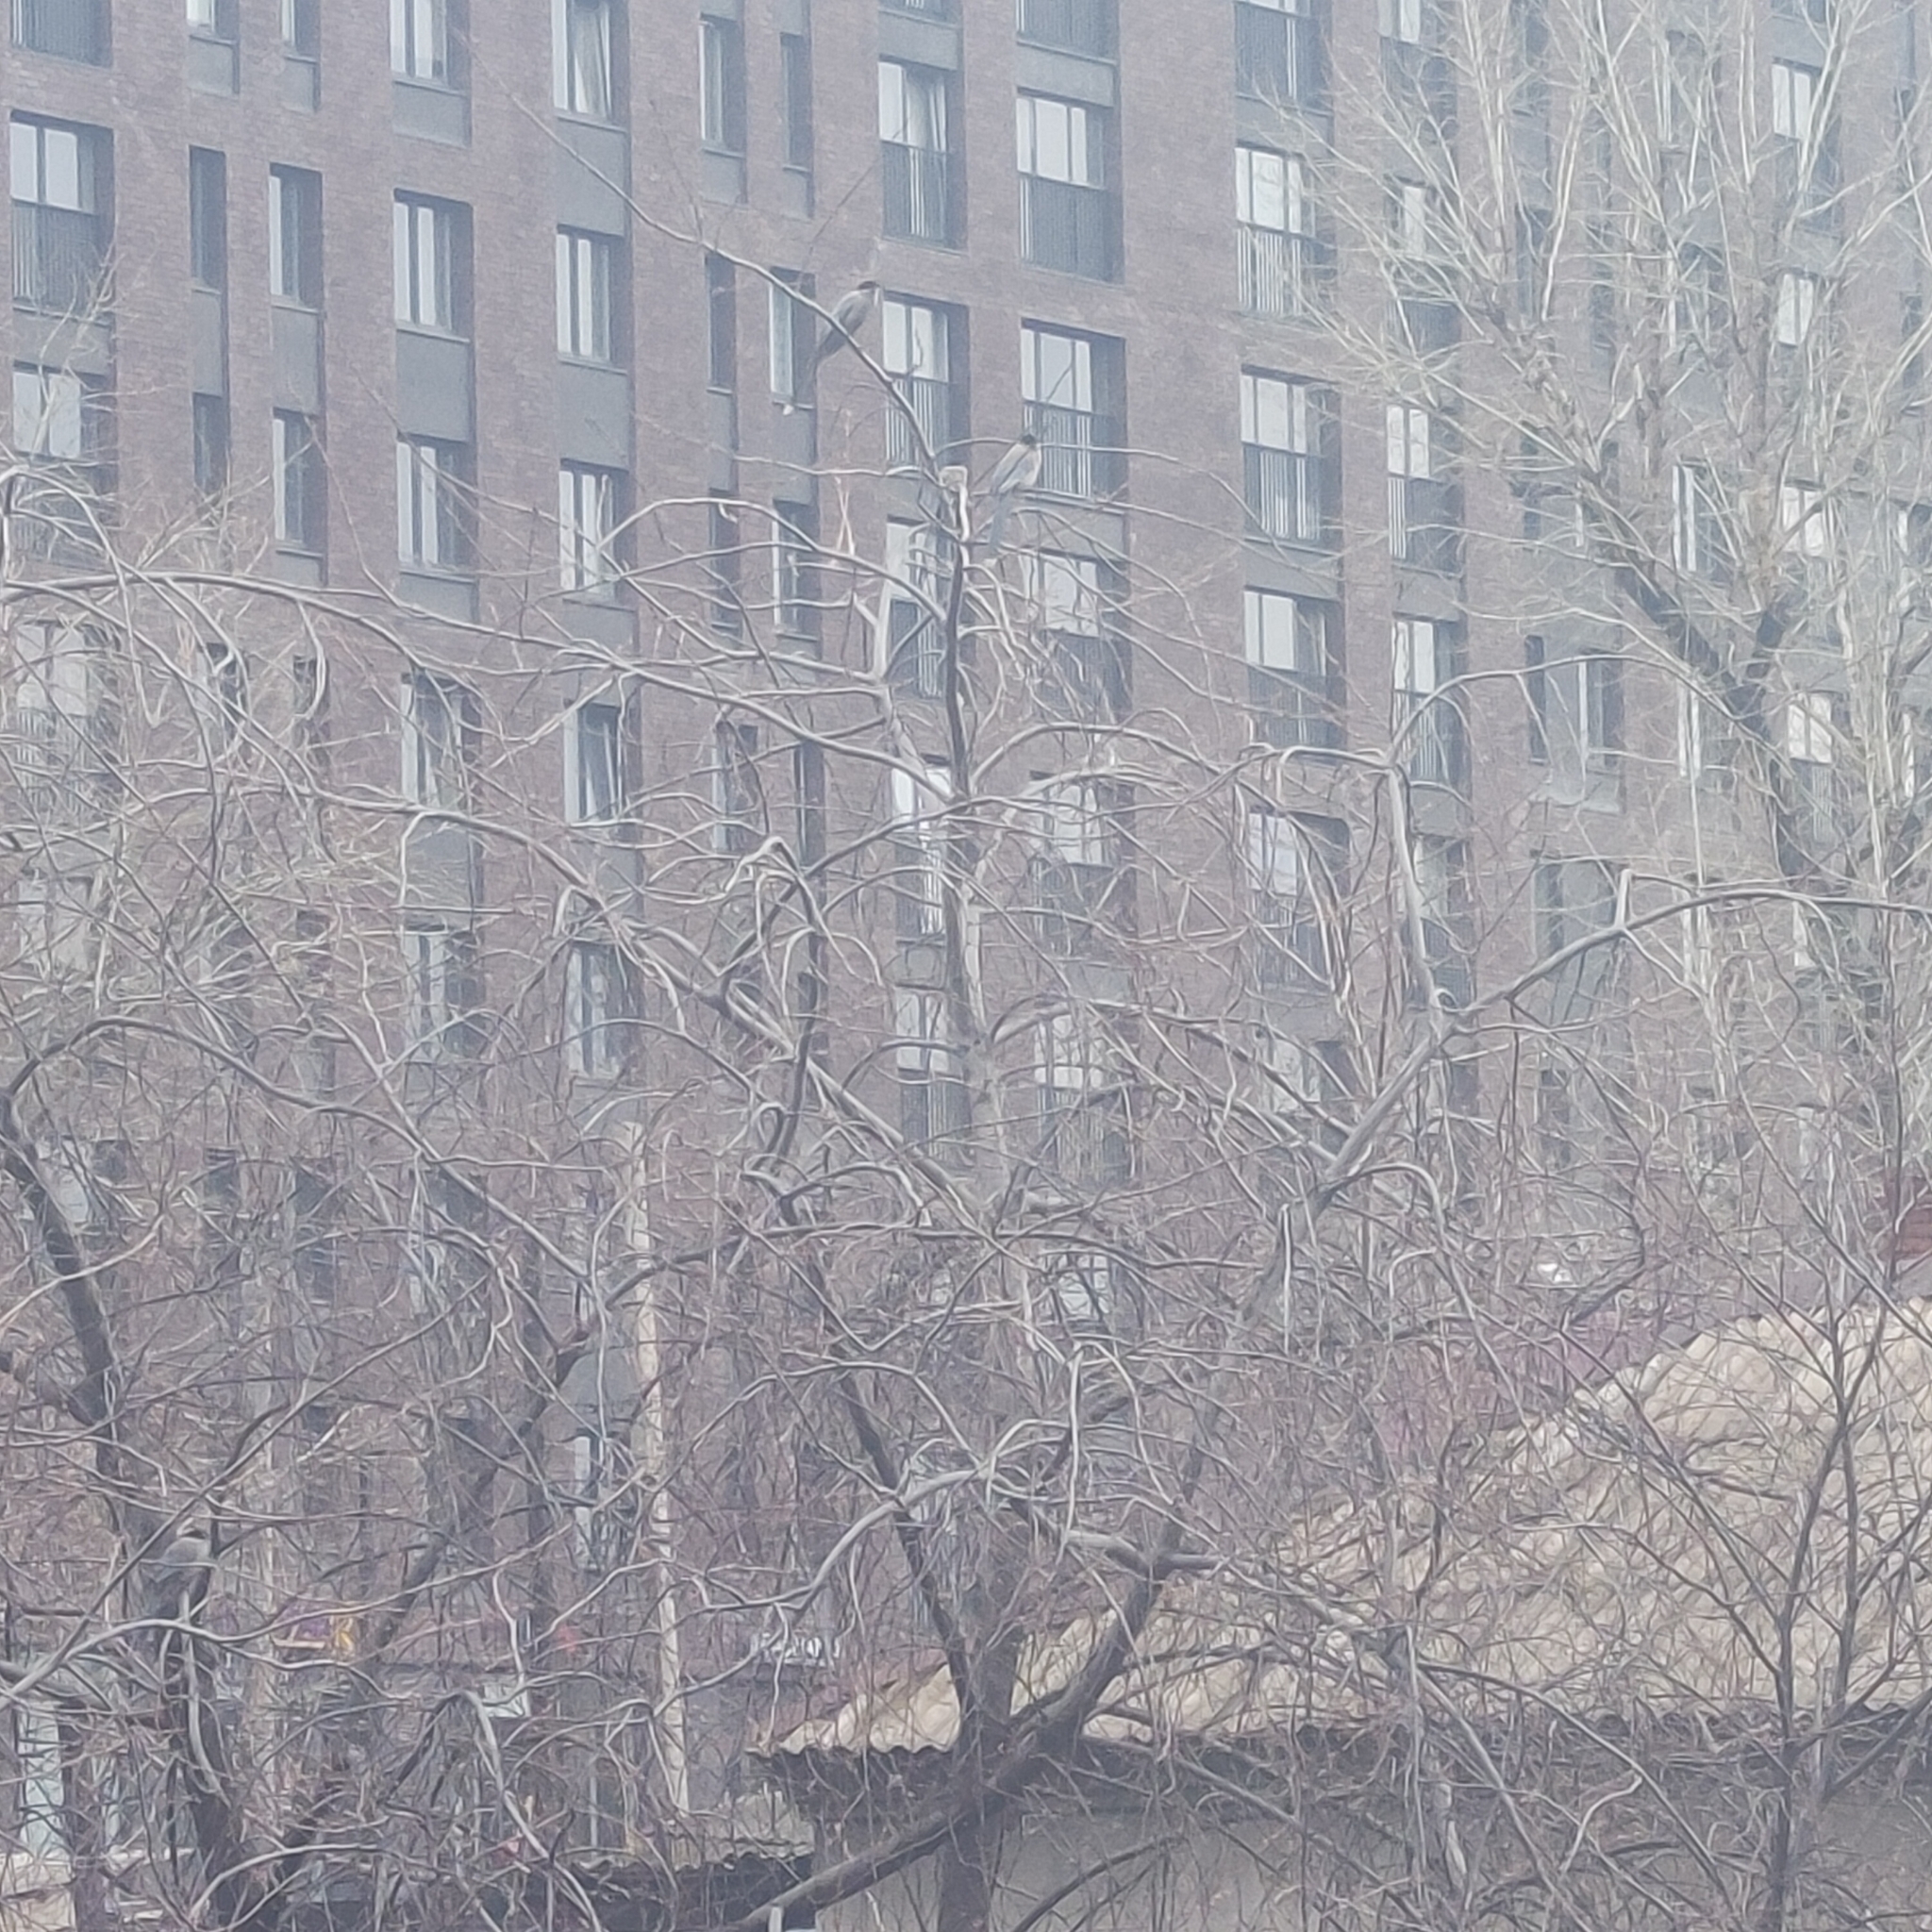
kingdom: Animalia
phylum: Chordata
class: Aves
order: Passeriformes
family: Corvidae
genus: Cyanopica
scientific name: Cyanopica cyanus
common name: Azure-winged magpie
